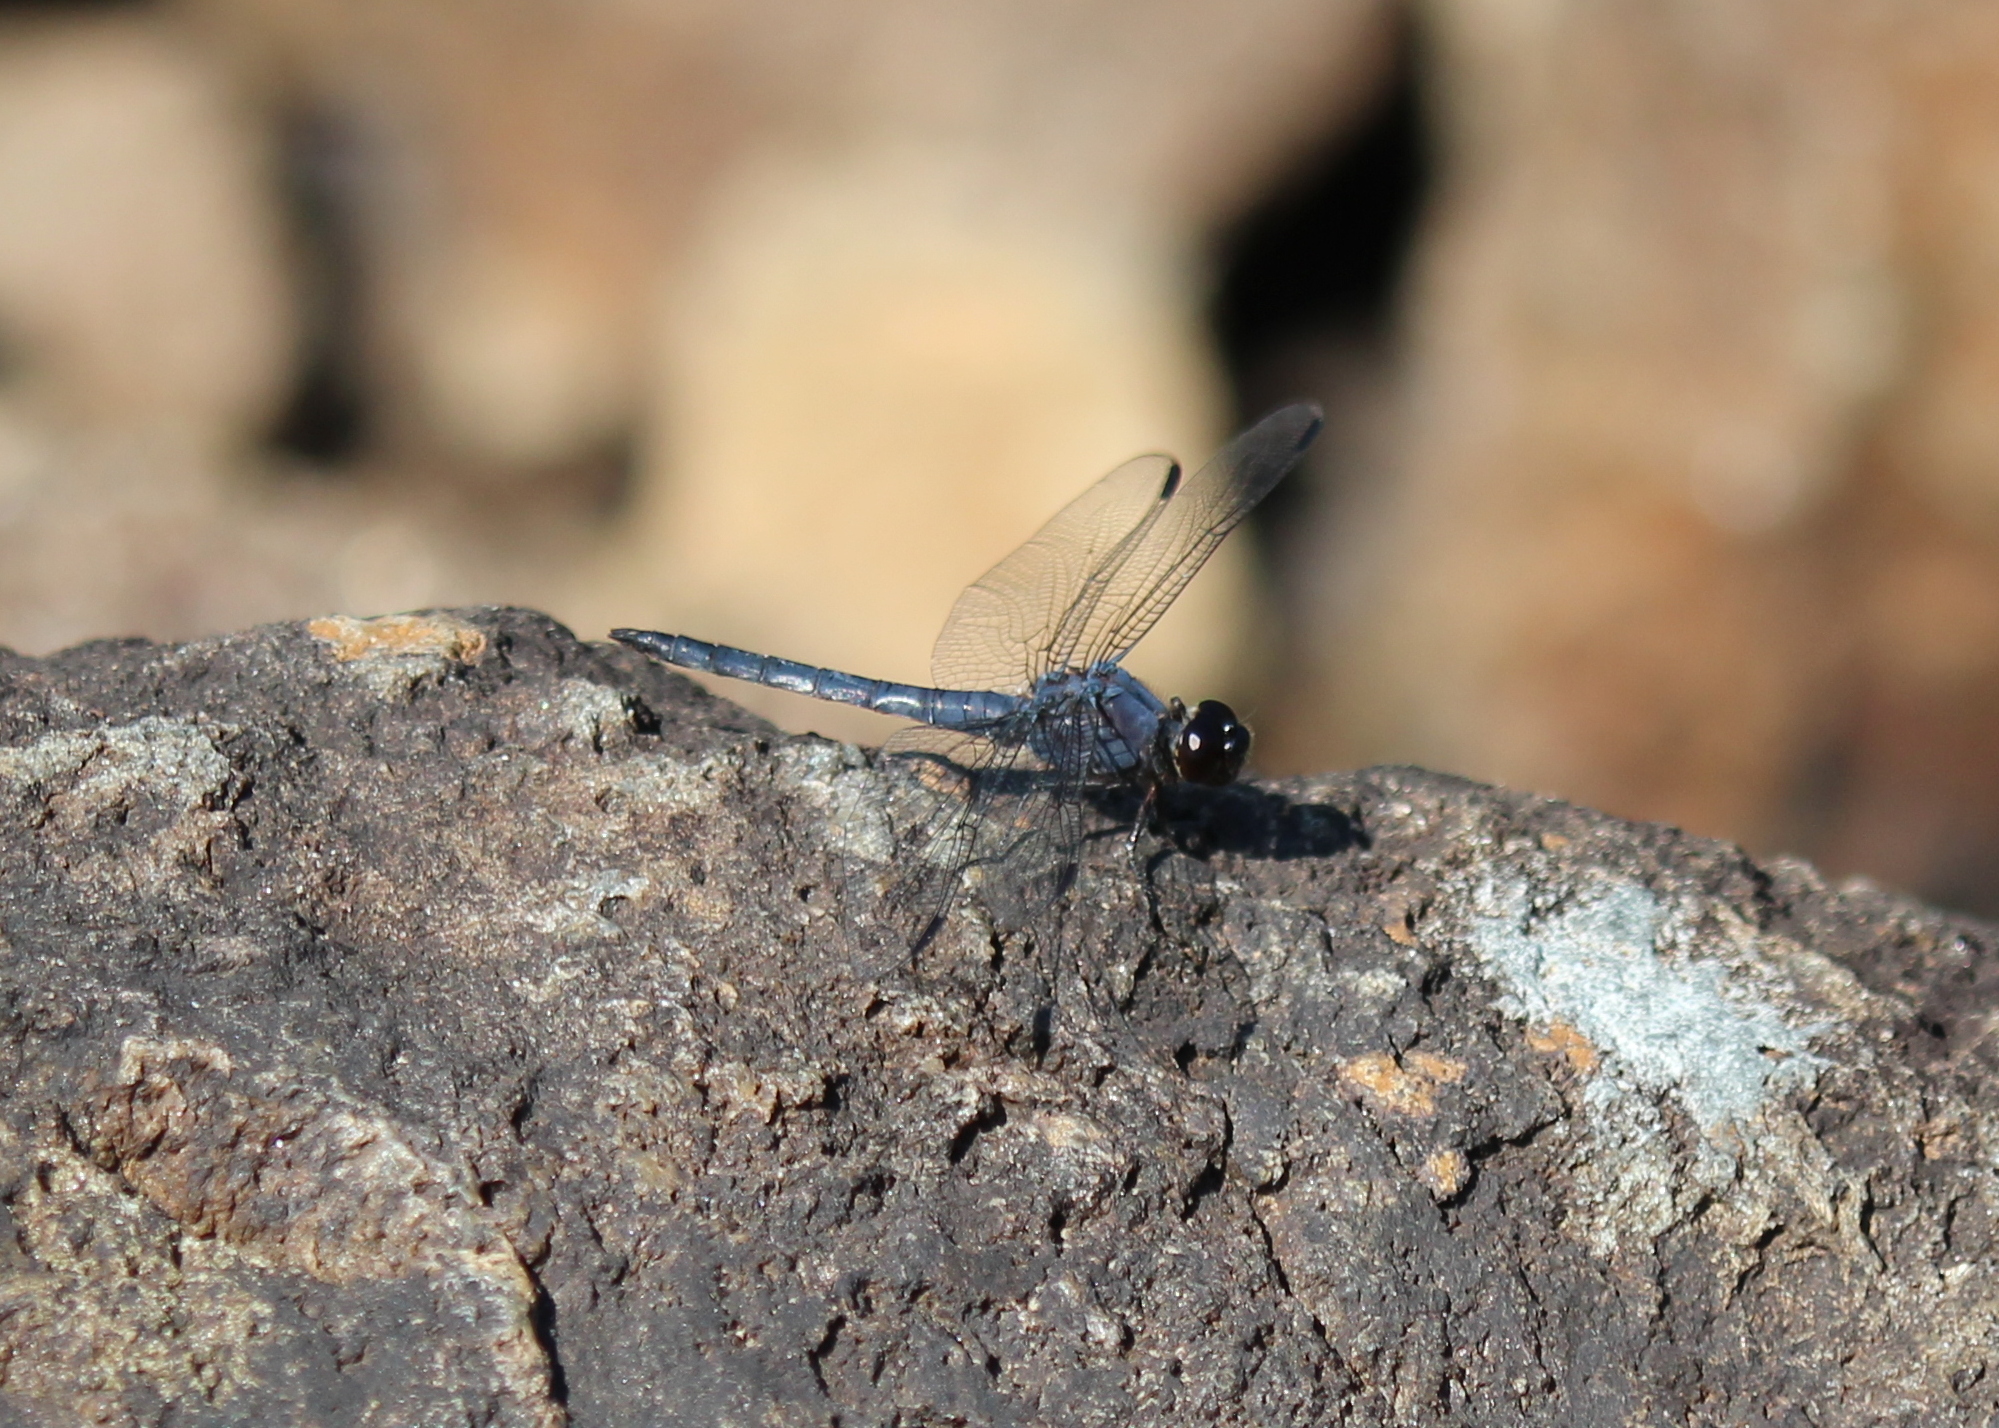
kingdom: Animalia
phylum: Arthropoda
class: Insecta
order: Odonata
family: Libellulidae
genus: Libellula
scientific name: Libellula incesta
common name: Slaty skimmer
